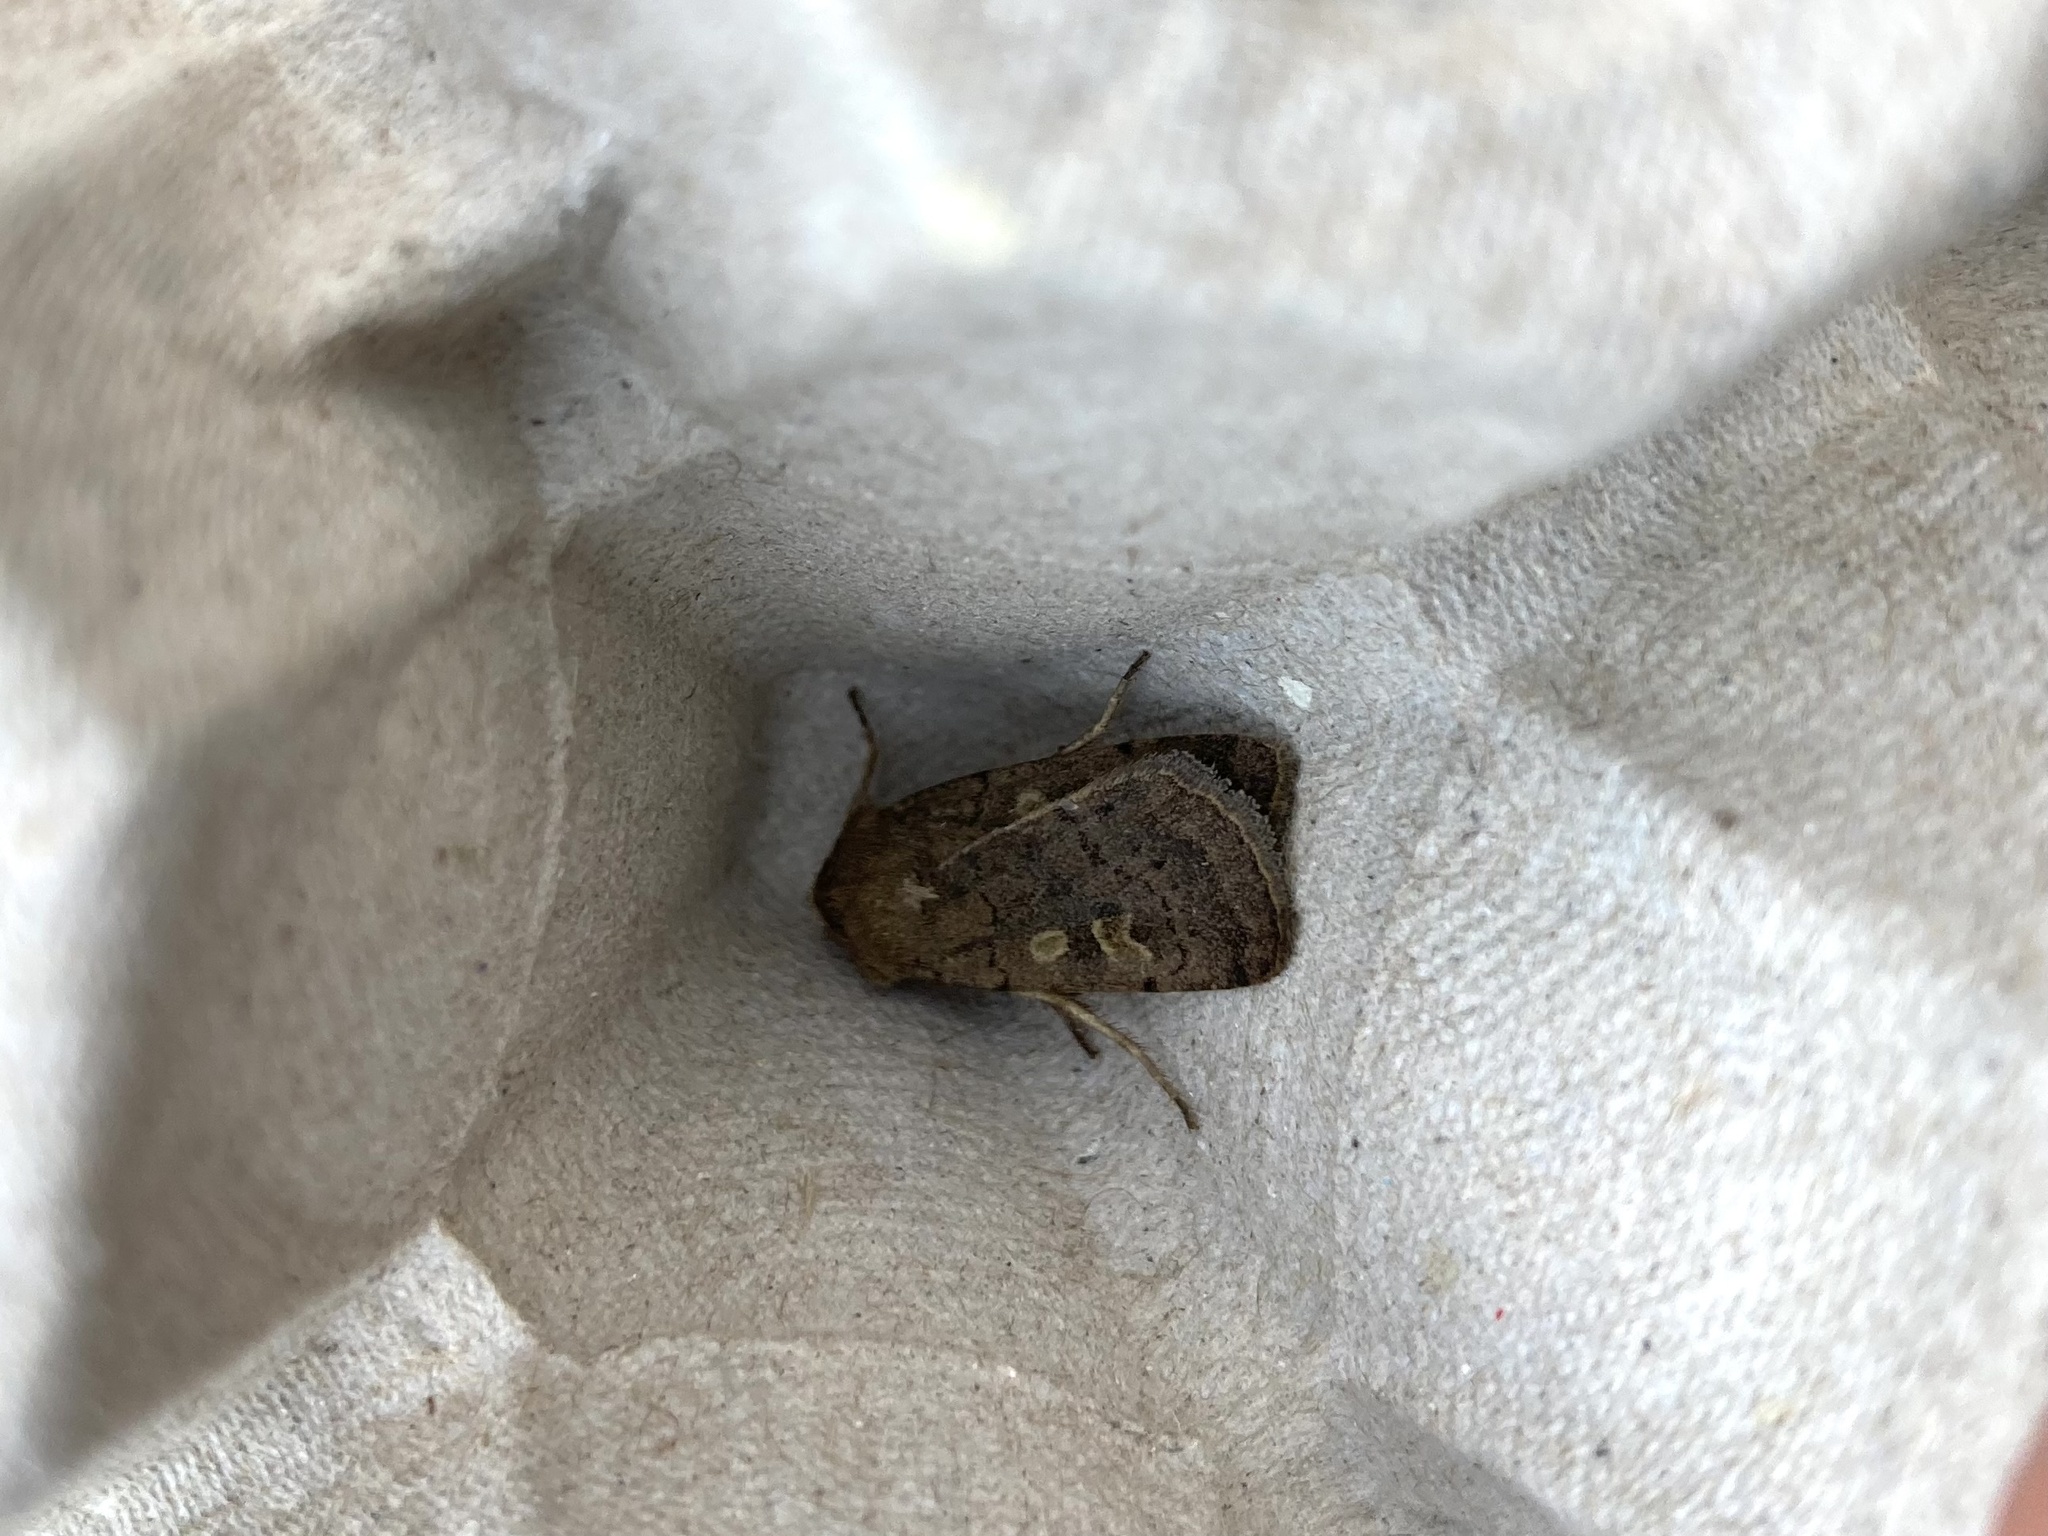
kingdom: Animalia
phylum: Arthropoda
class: Insecta
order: Lepidoptera
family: Noctuidae
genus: Xestia
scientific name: Xestia xanthographa
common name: Square-spot rustic
